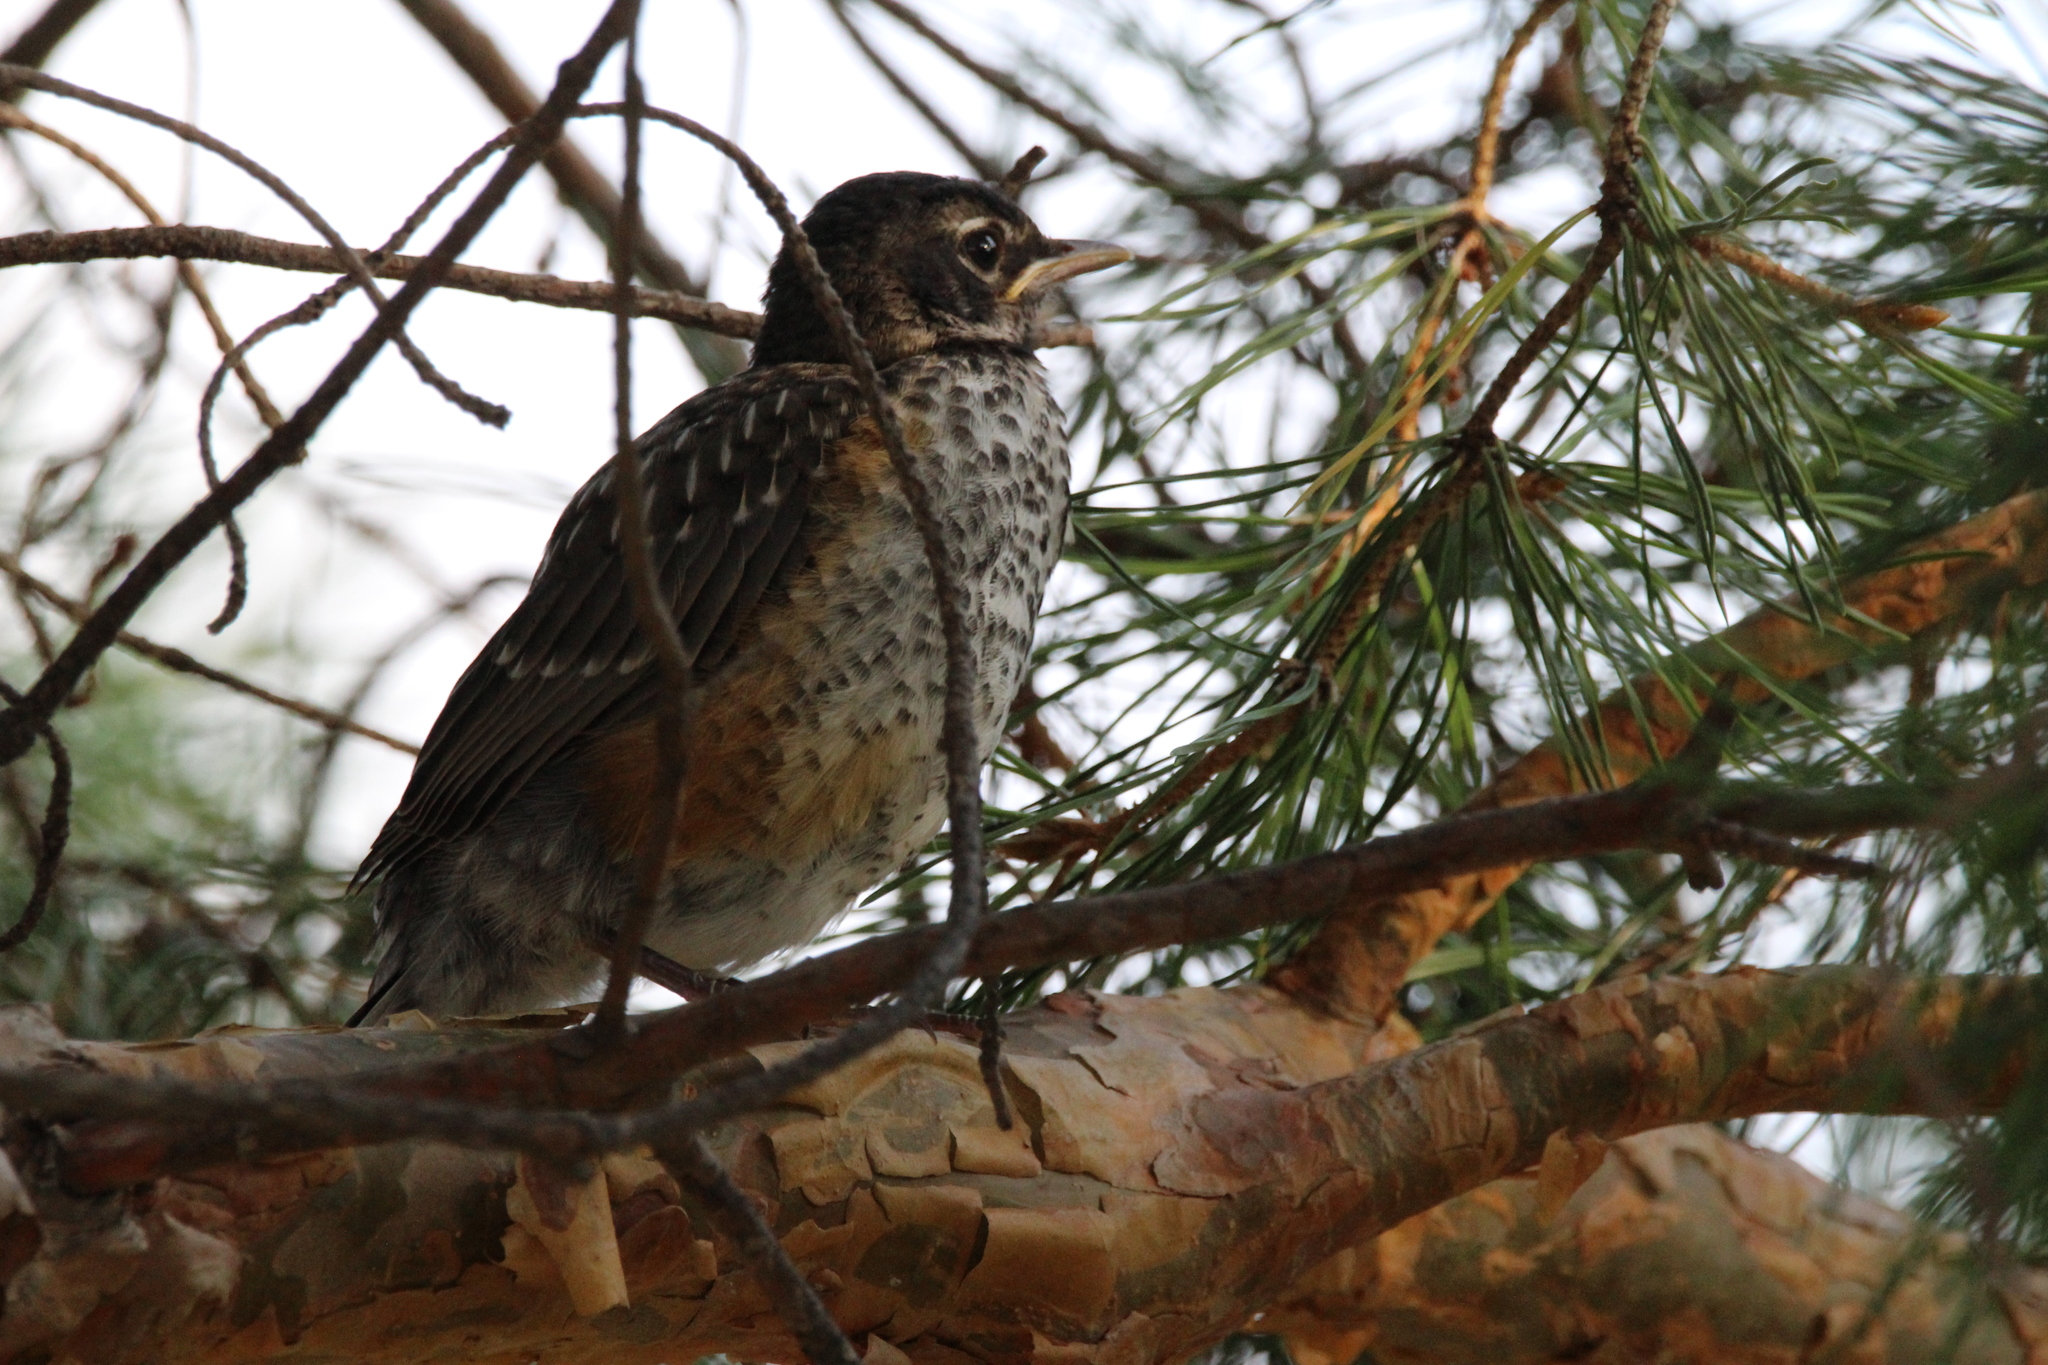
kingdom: Animalia
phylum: Chordata
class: Aves
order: Passeriformes
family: Turdidae
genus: Turdus
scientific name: Turdus migratorius
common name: American robin
